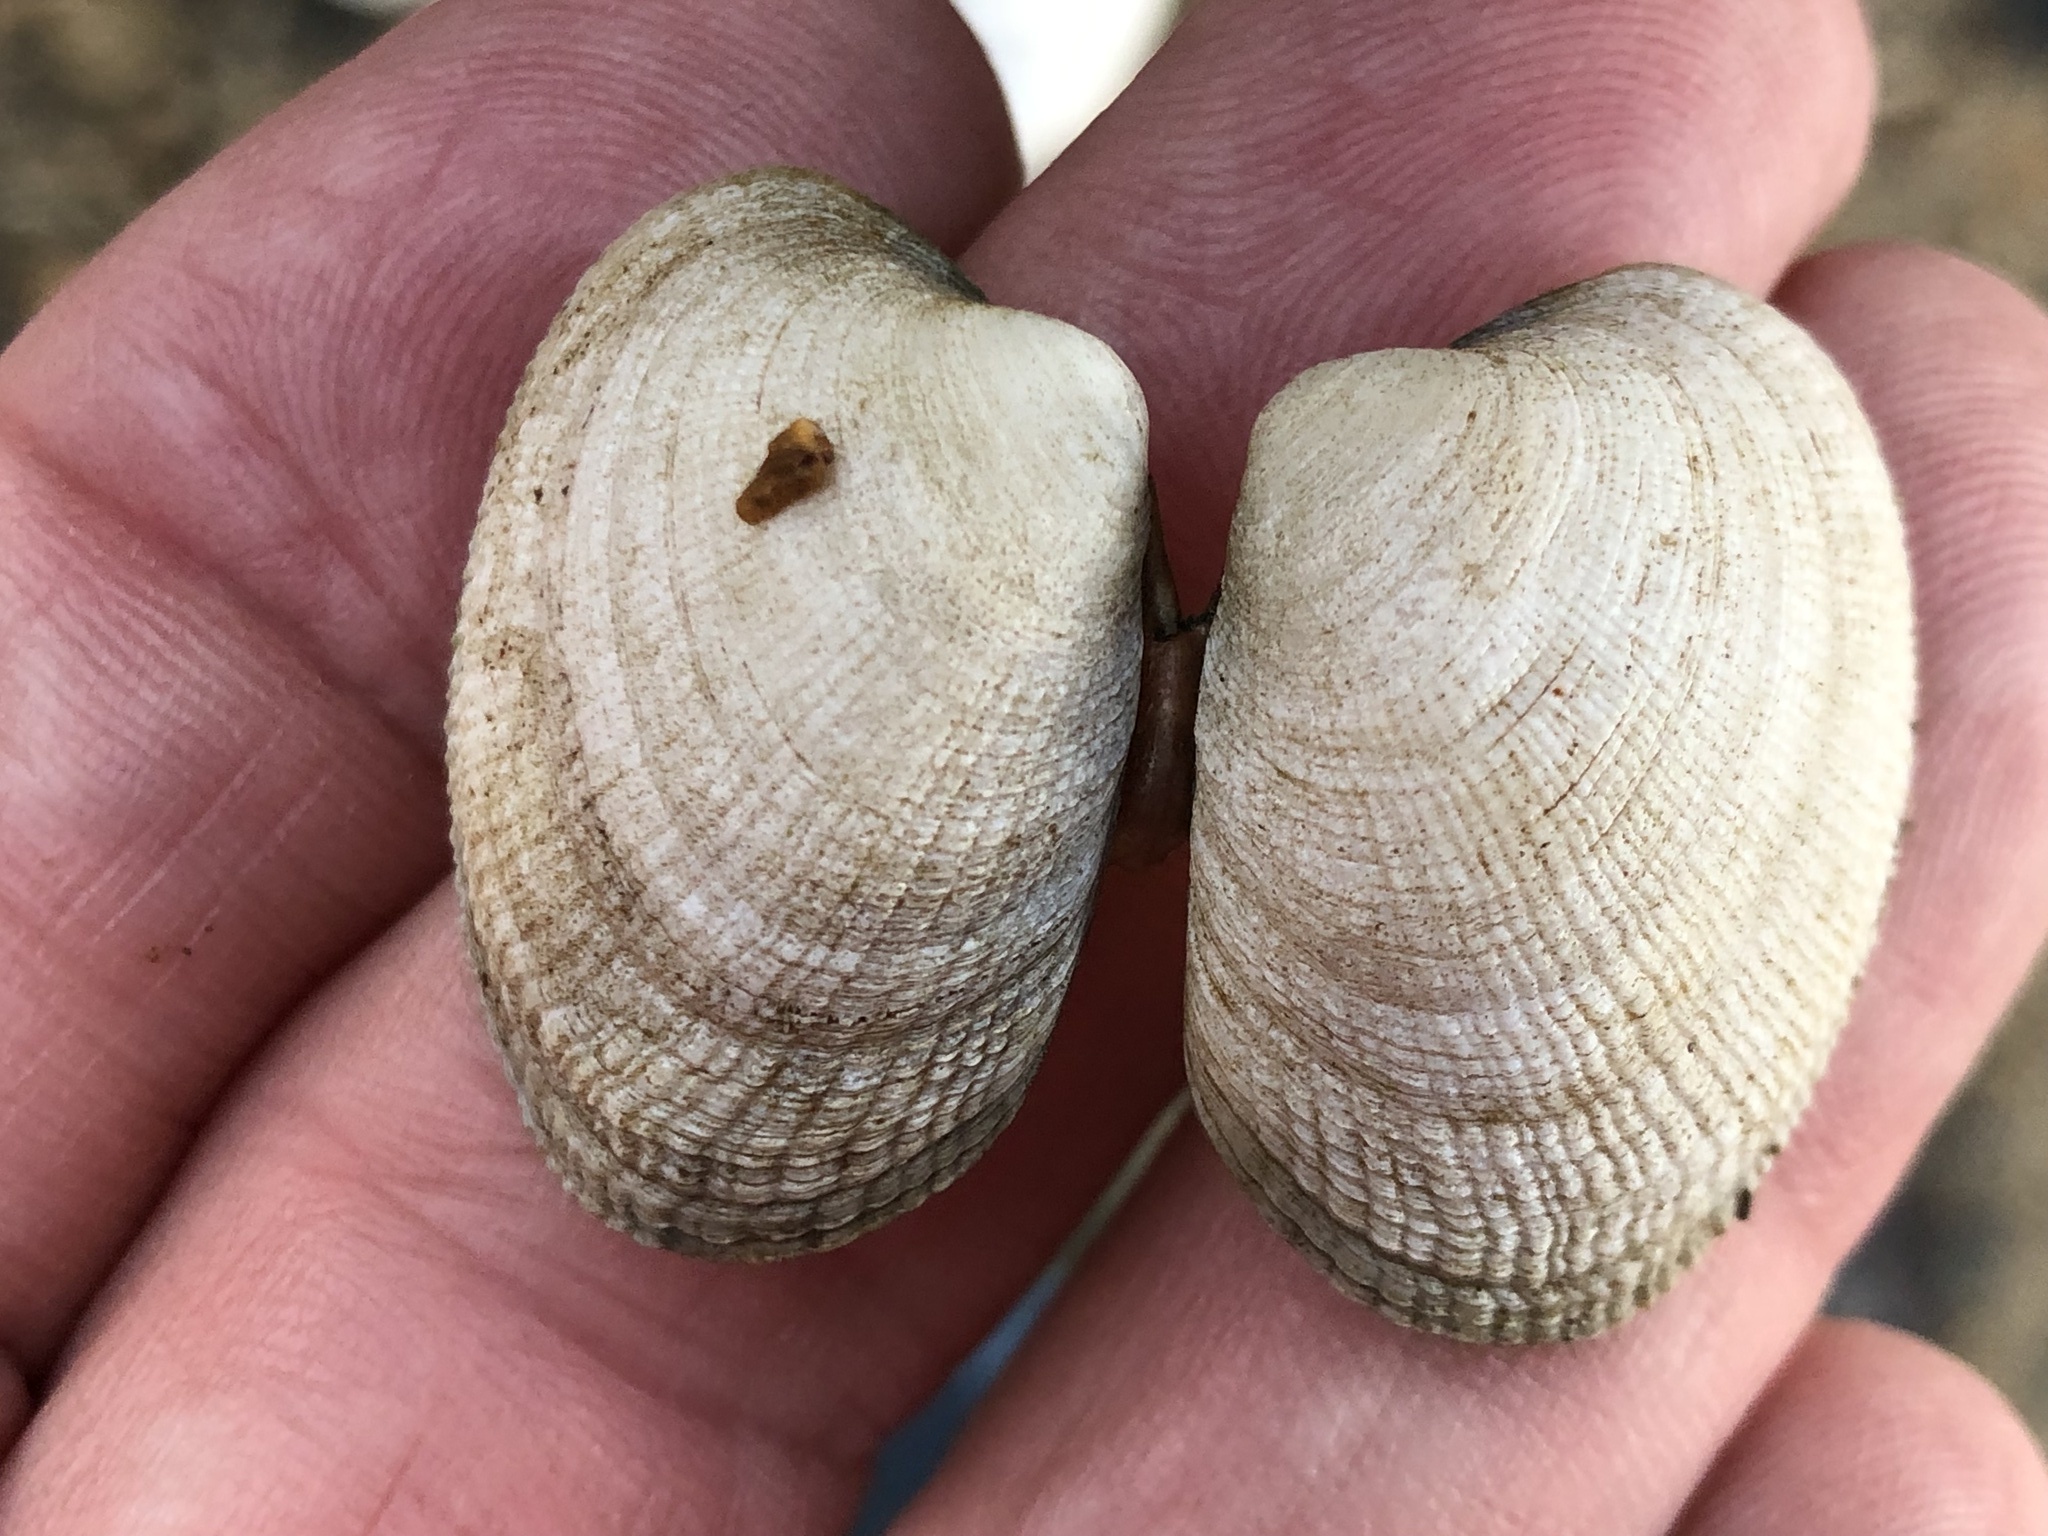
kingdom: Animalia
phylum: Mollusca
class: Bivalvia
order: Venerida
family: Veneridae
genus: Ruditapes
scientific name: Ruditapes philippinarum
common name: Manila clam
